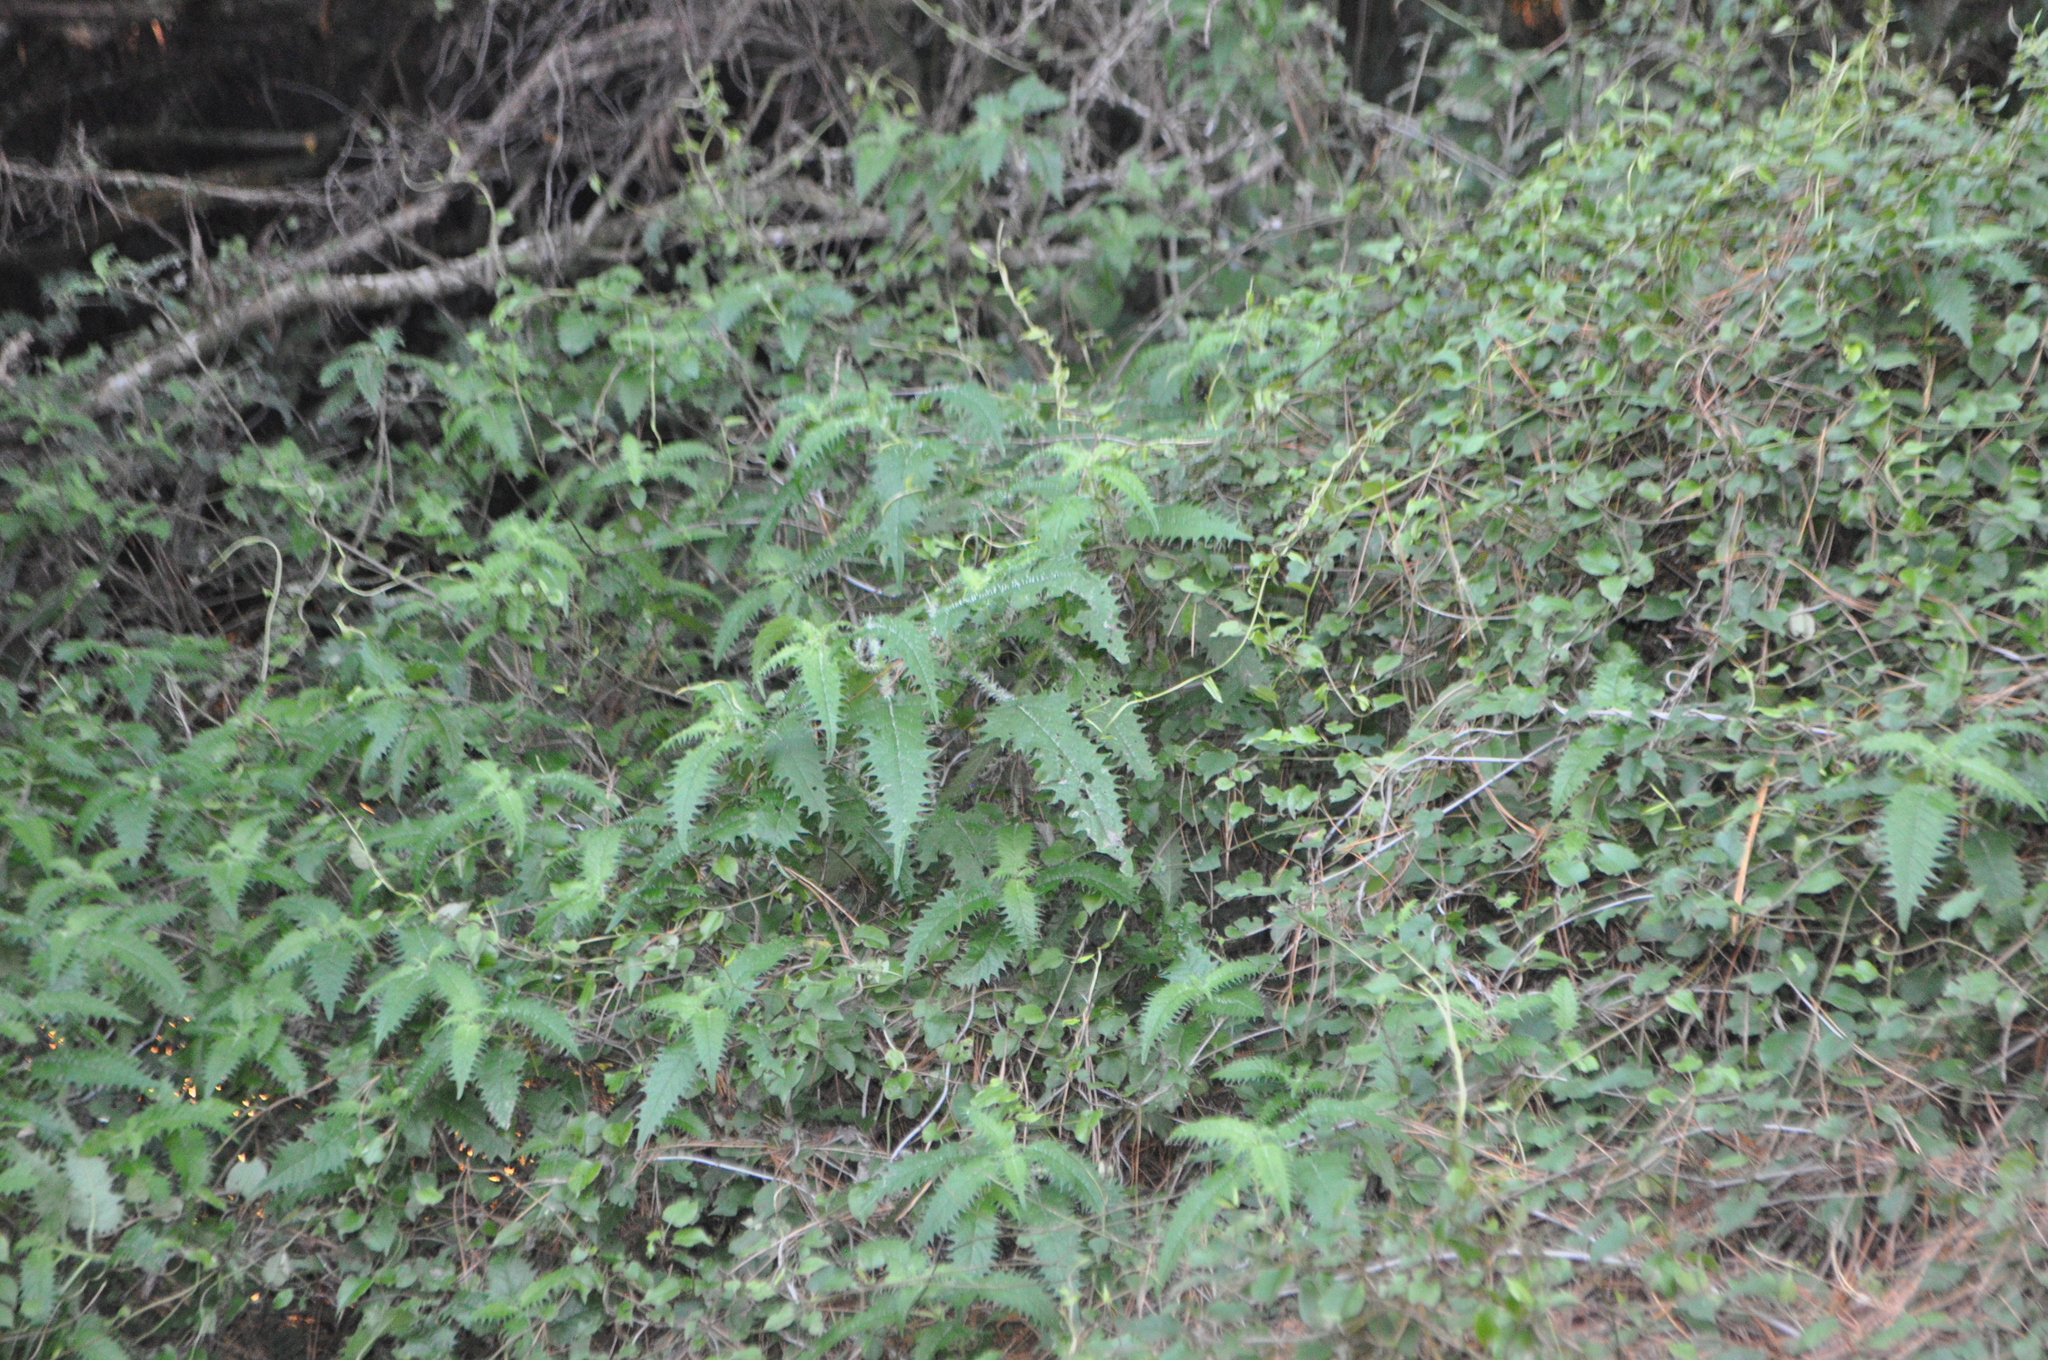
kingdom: Plantae
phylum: Tracheophyta
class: Magnoliopsida
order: Rosales
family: Urticaceae
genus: Urtica
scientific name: Urtica ferox
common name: Tree nettle
